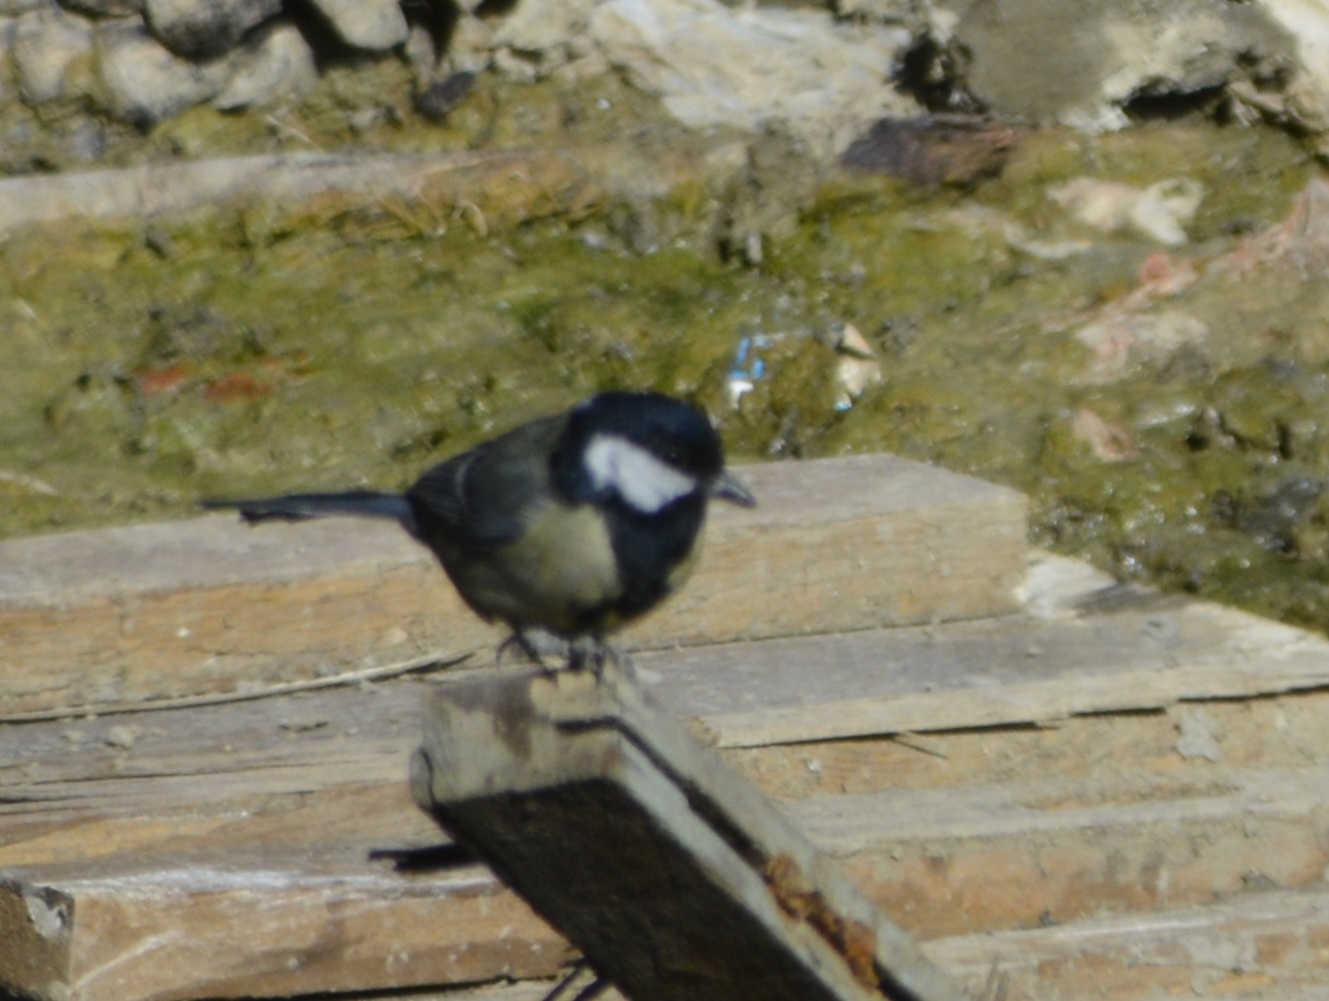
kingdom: Animalia
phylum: Chordata
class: Aves
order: Passeriformes
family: Paridae
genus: Parus
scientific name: Parus major
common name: Great tit
